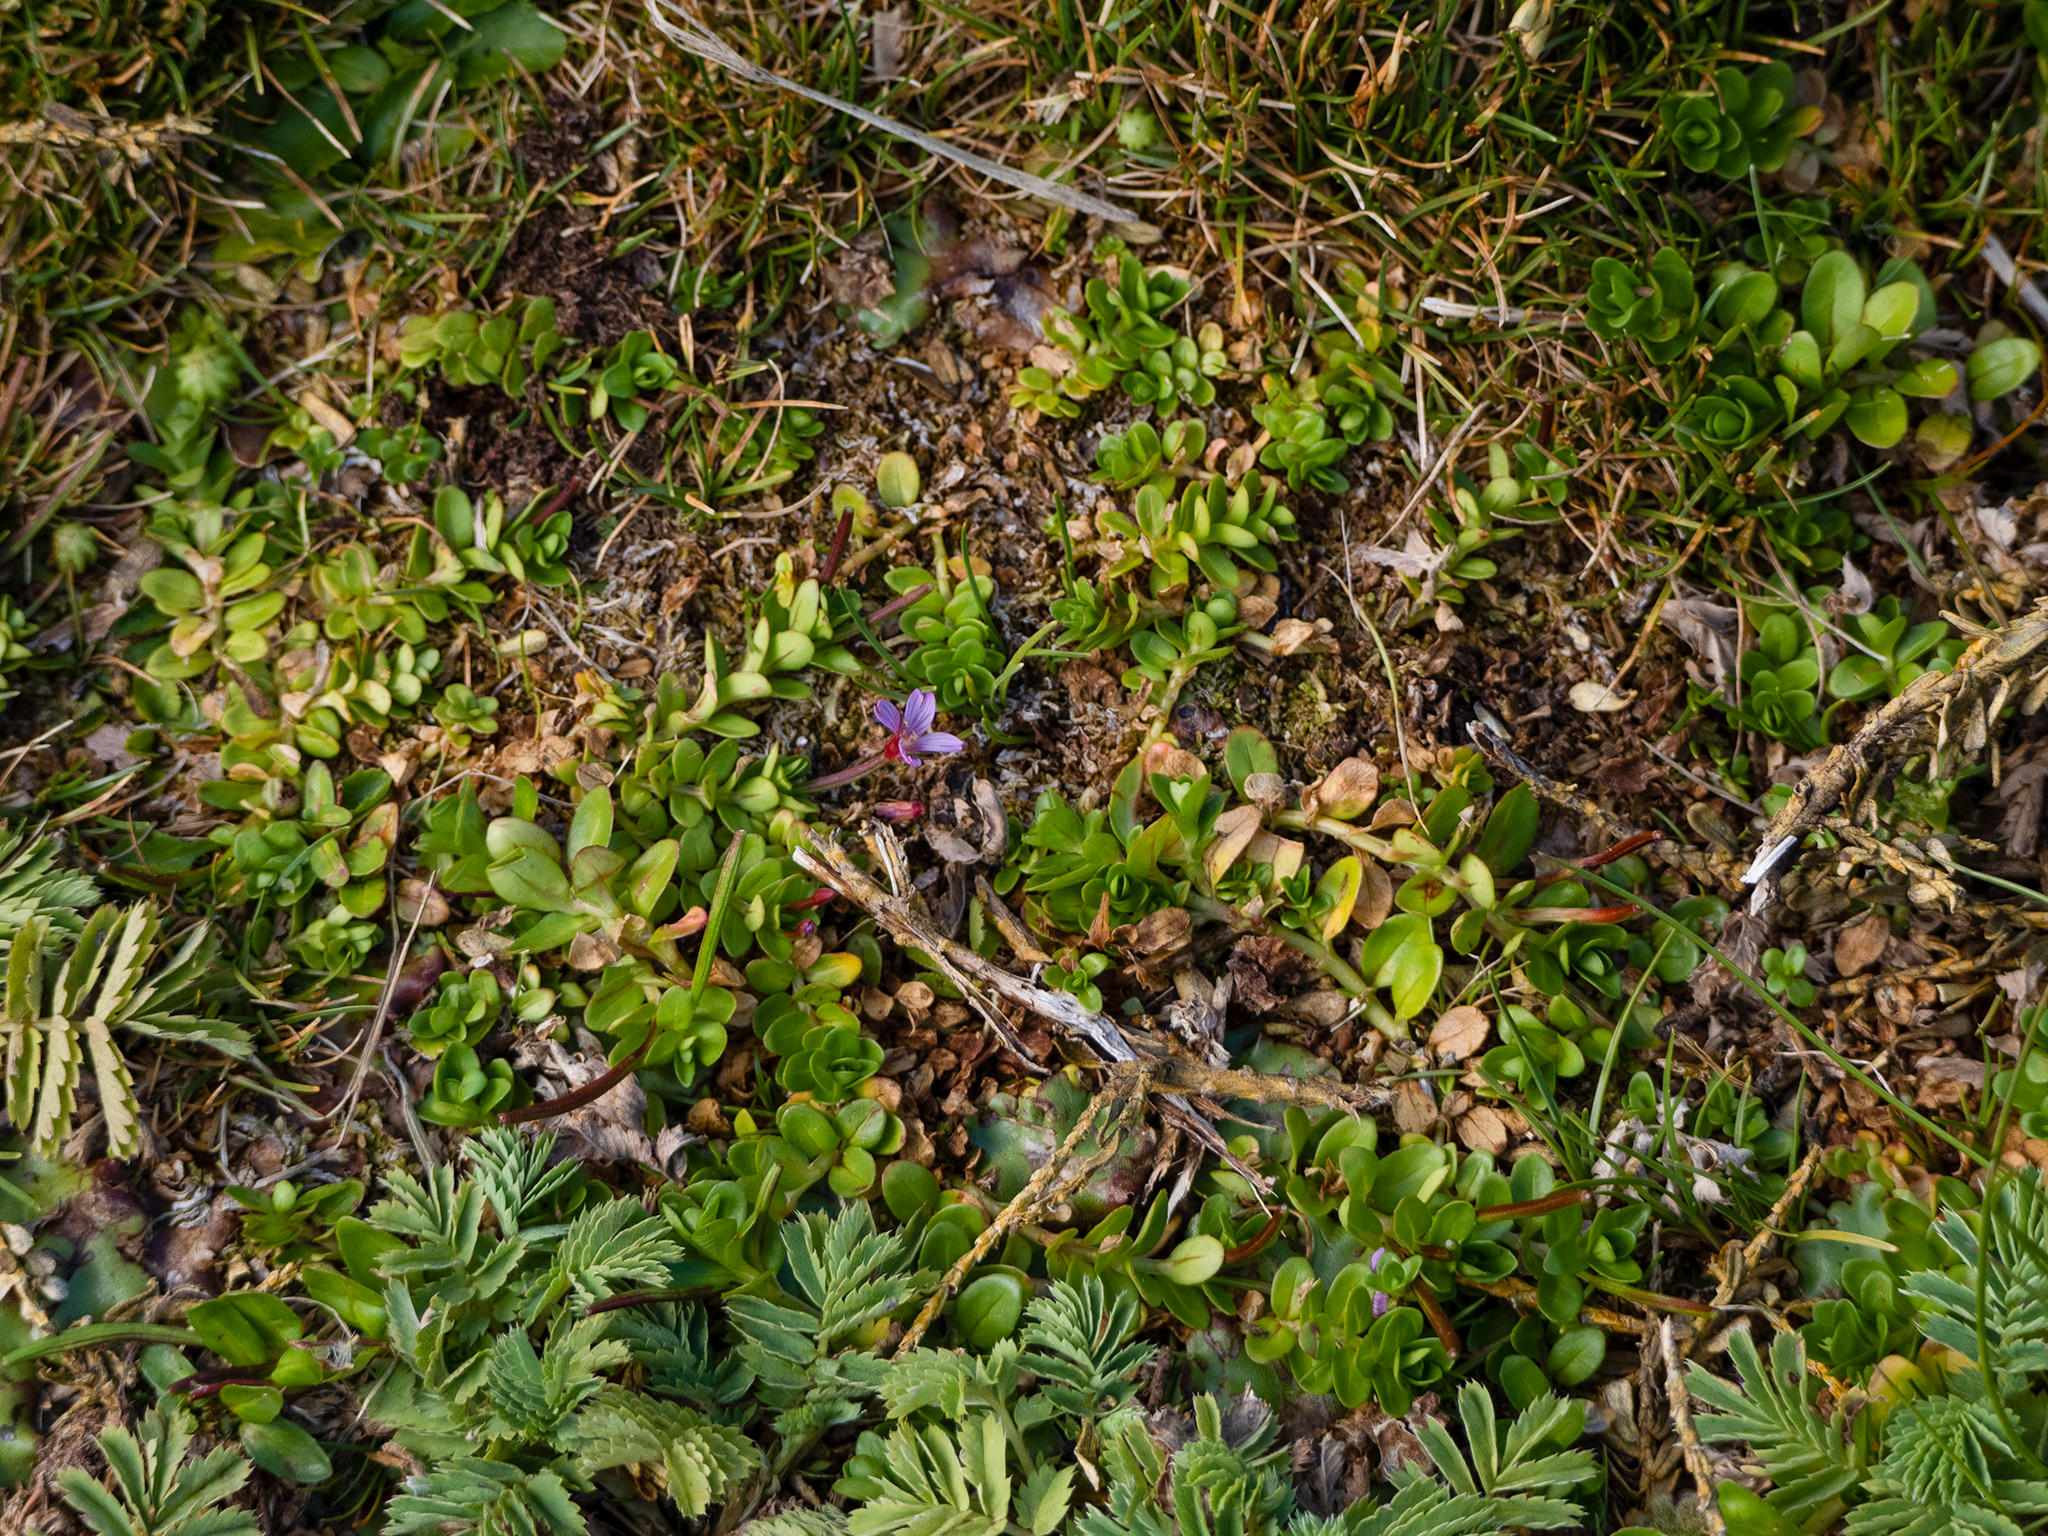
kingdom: Plantae
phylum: Tracheophyta
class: Magnoliopsida
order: Myrtales
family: Onagraceae
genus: Epilobium
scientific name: Epilobium confertifolium
